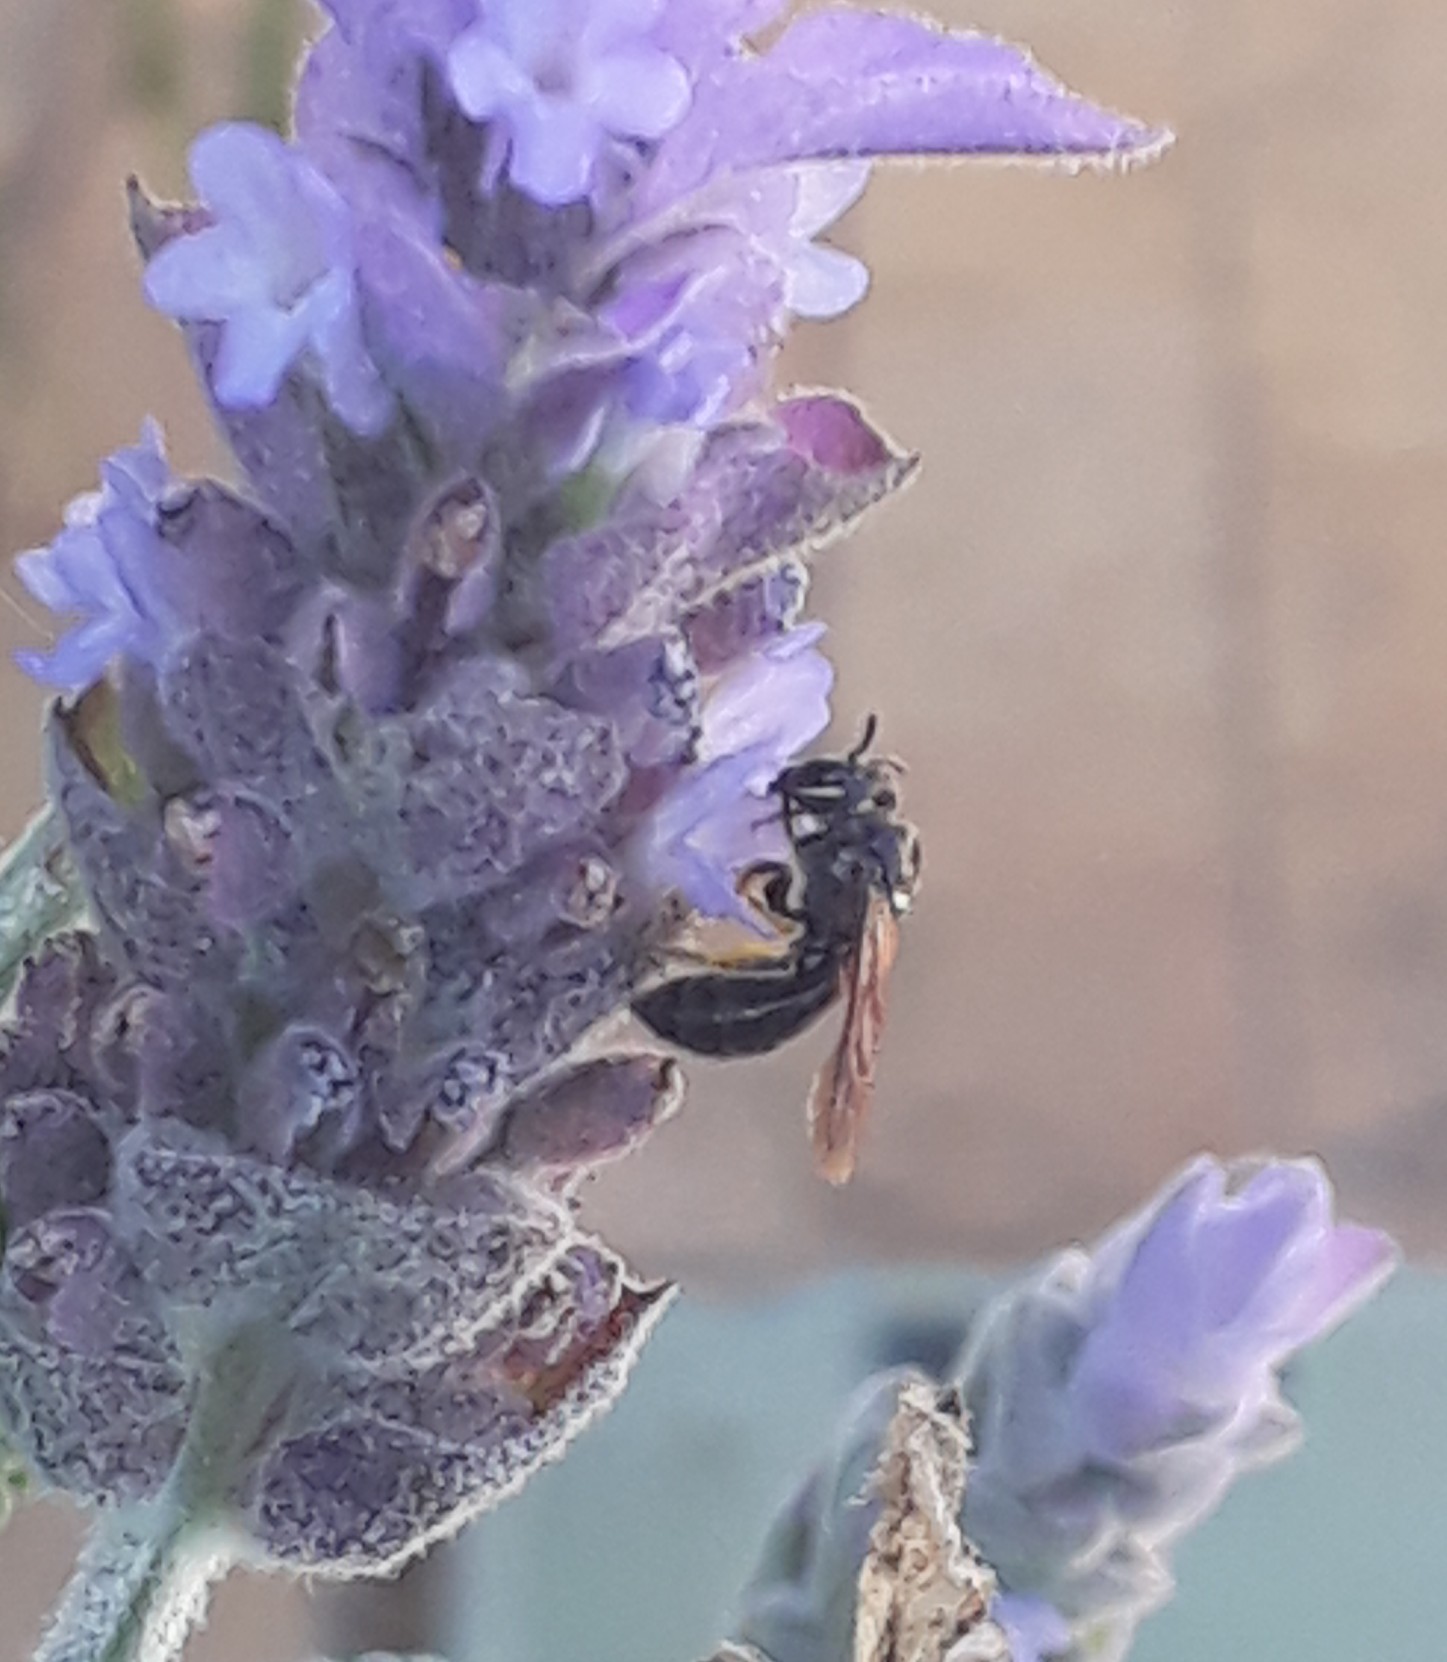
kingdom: Animalia
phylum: Arthropoda
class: Insecta
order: Hymenoptera
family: Apidae
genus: Allodape
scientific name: Allodape
